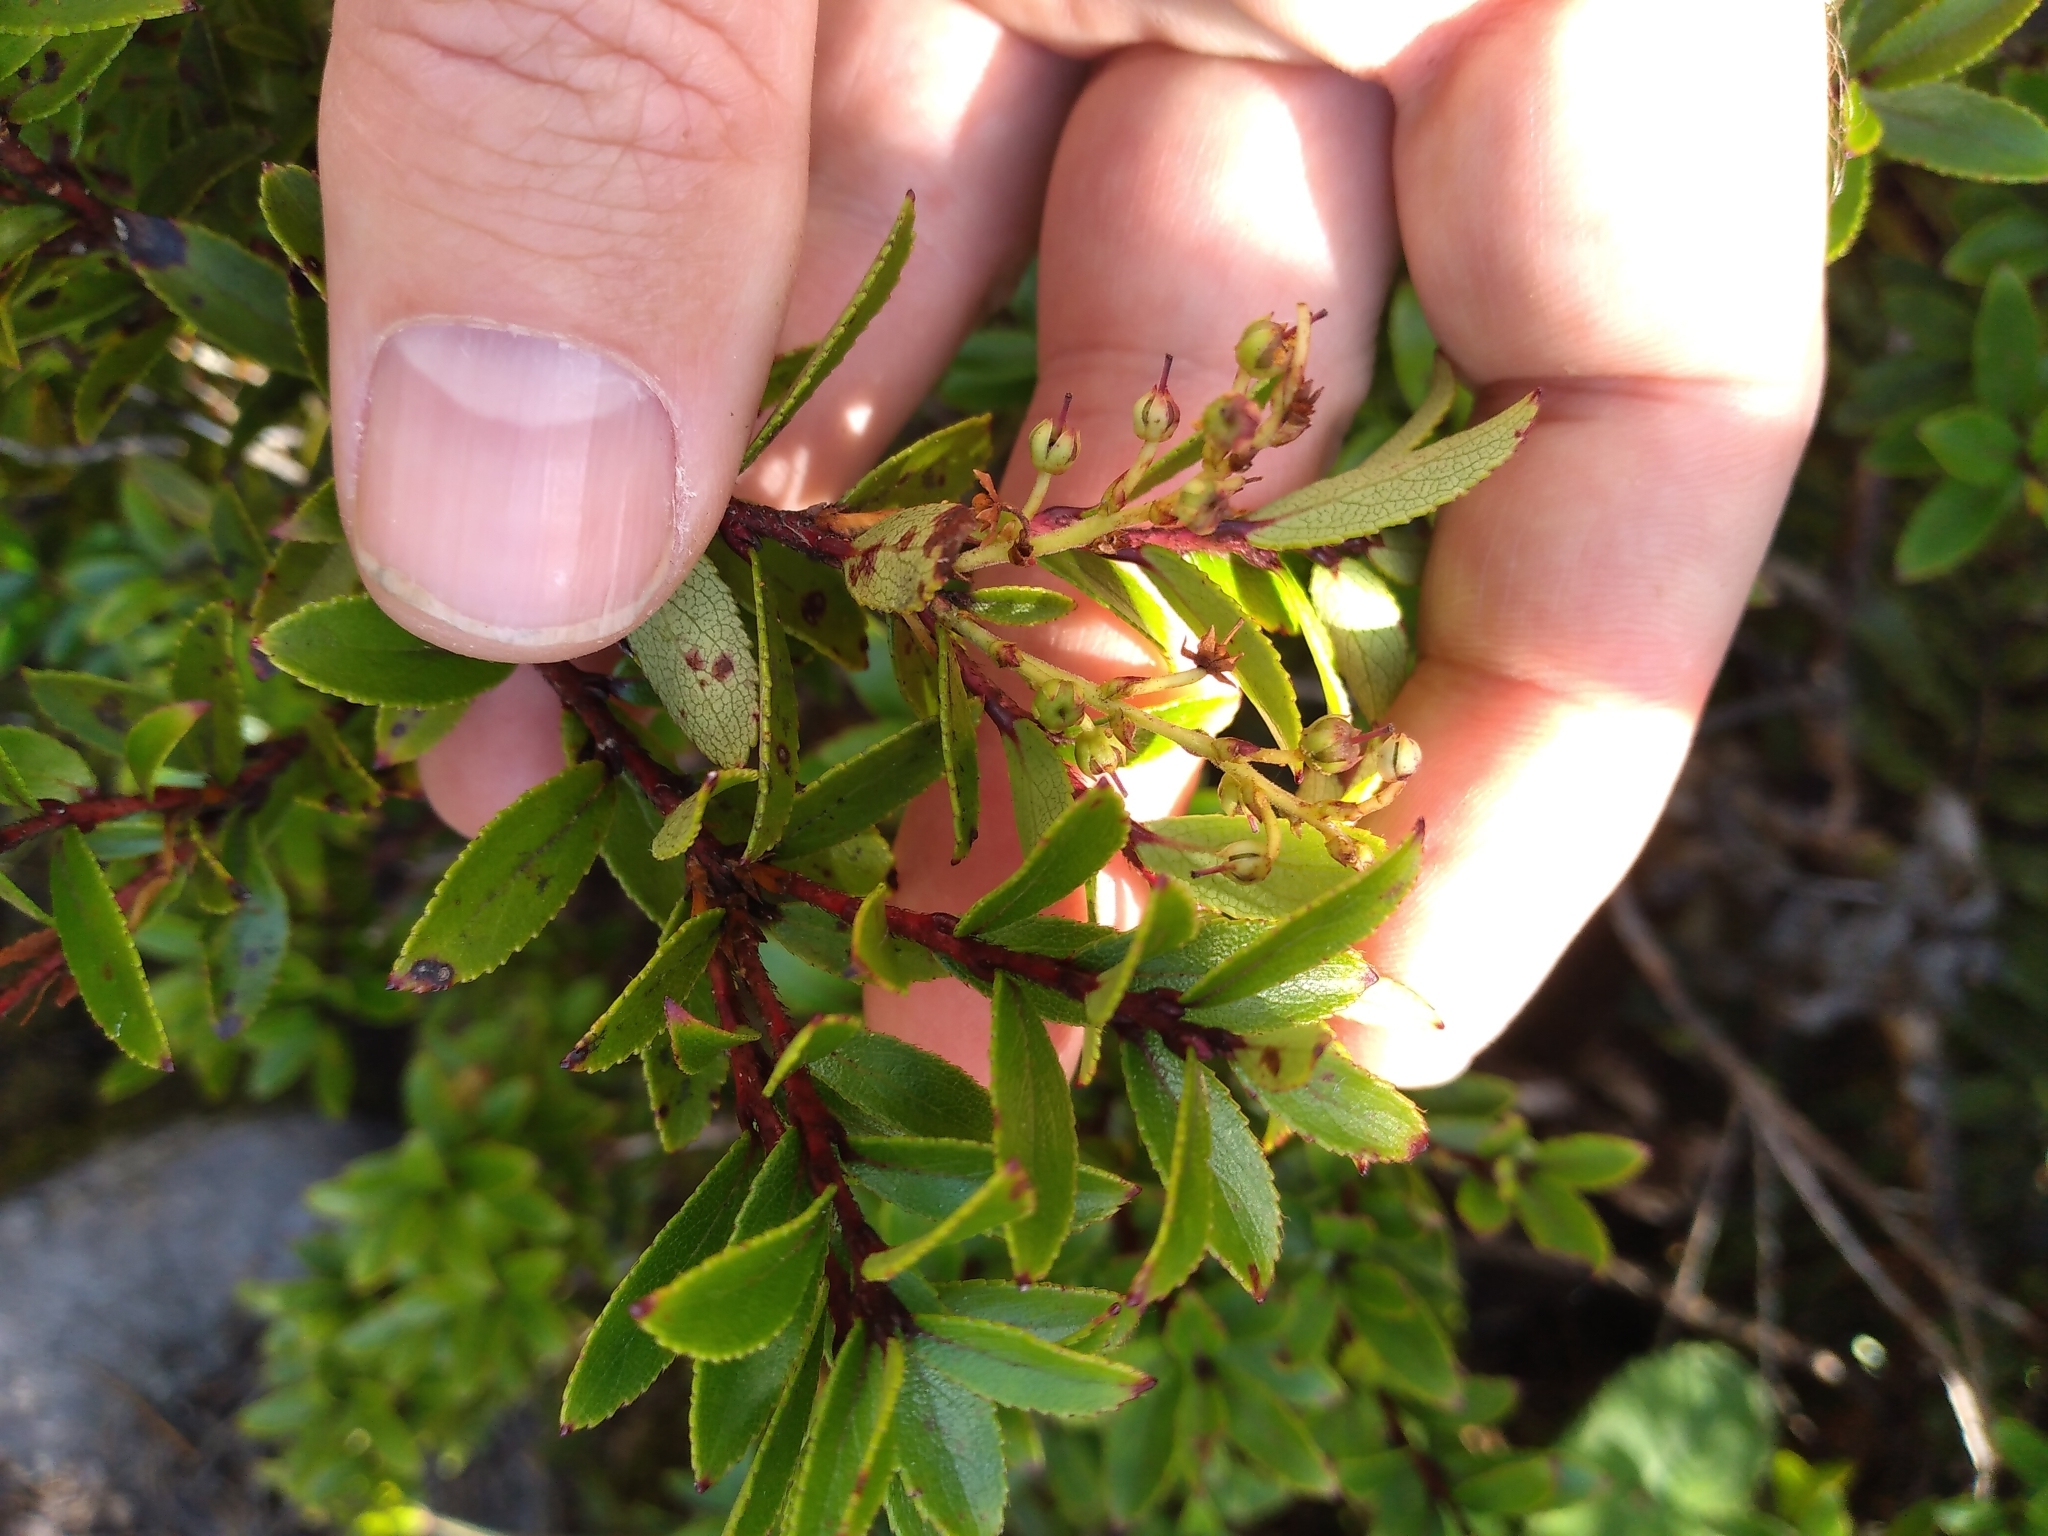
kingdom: Plantae
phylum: Tracheophyta
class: Magnoliopsida
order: Ericales
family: Ericaceae
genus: Gaultheria
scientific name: Gaultheria rupestris
